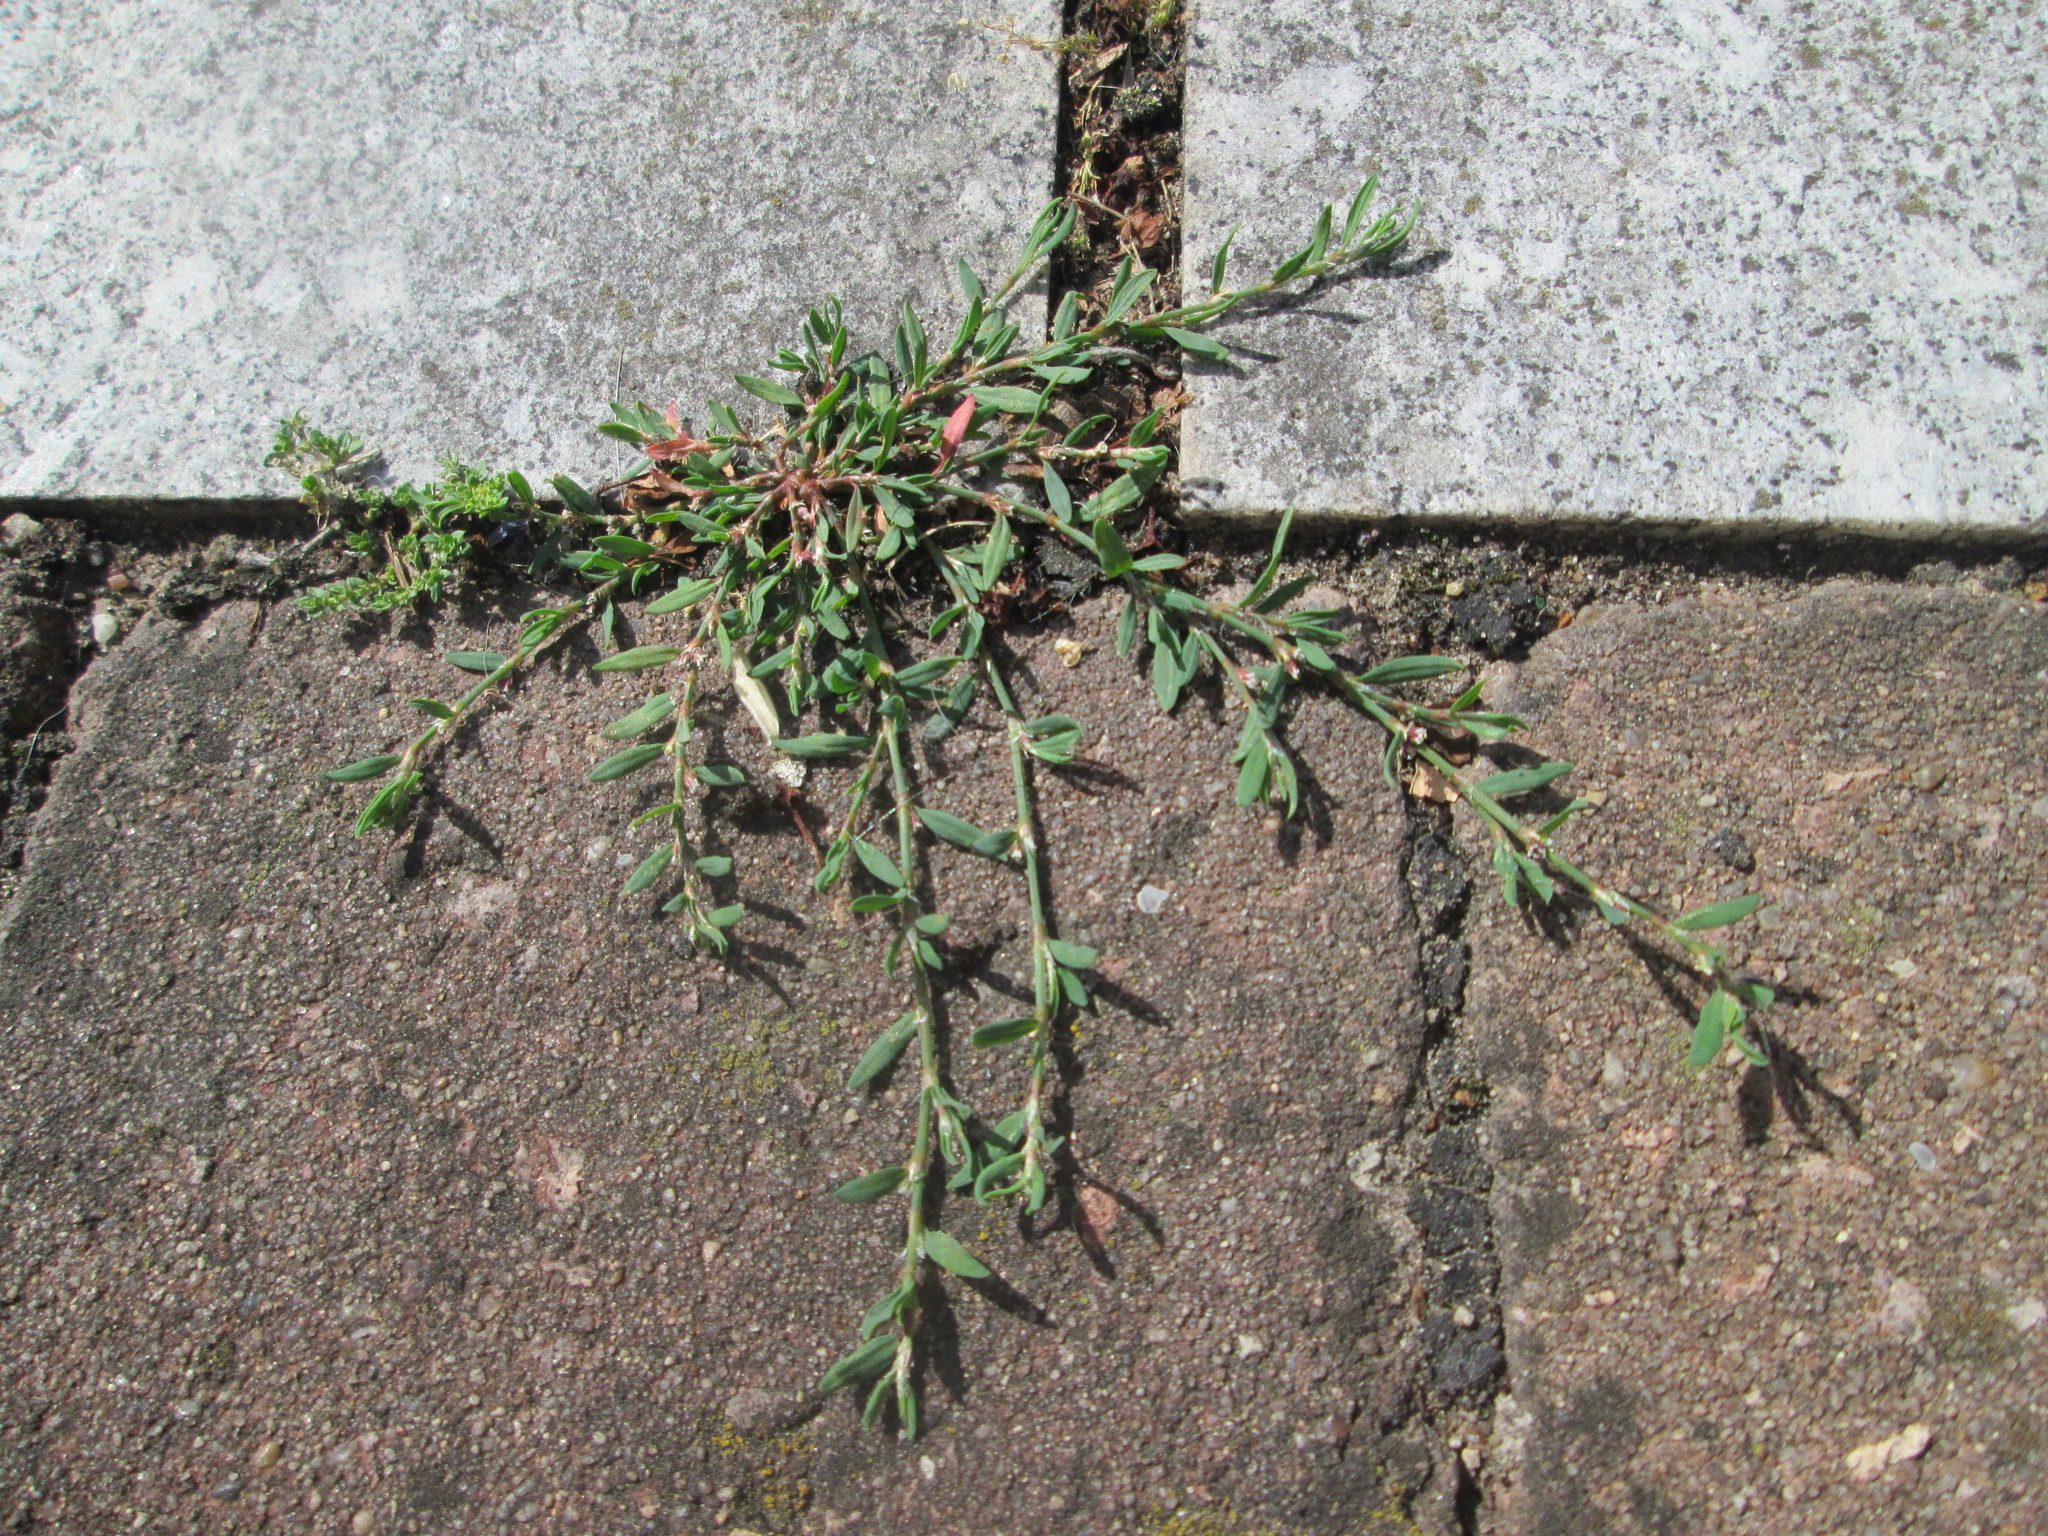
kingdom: Plantae
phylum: Tracheophyta
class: Magnoliopsida
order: Caryophyllales
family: Polygonaceae
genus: Polygonum
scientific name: Polygonum aviculare
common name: Prostrate knotweed
